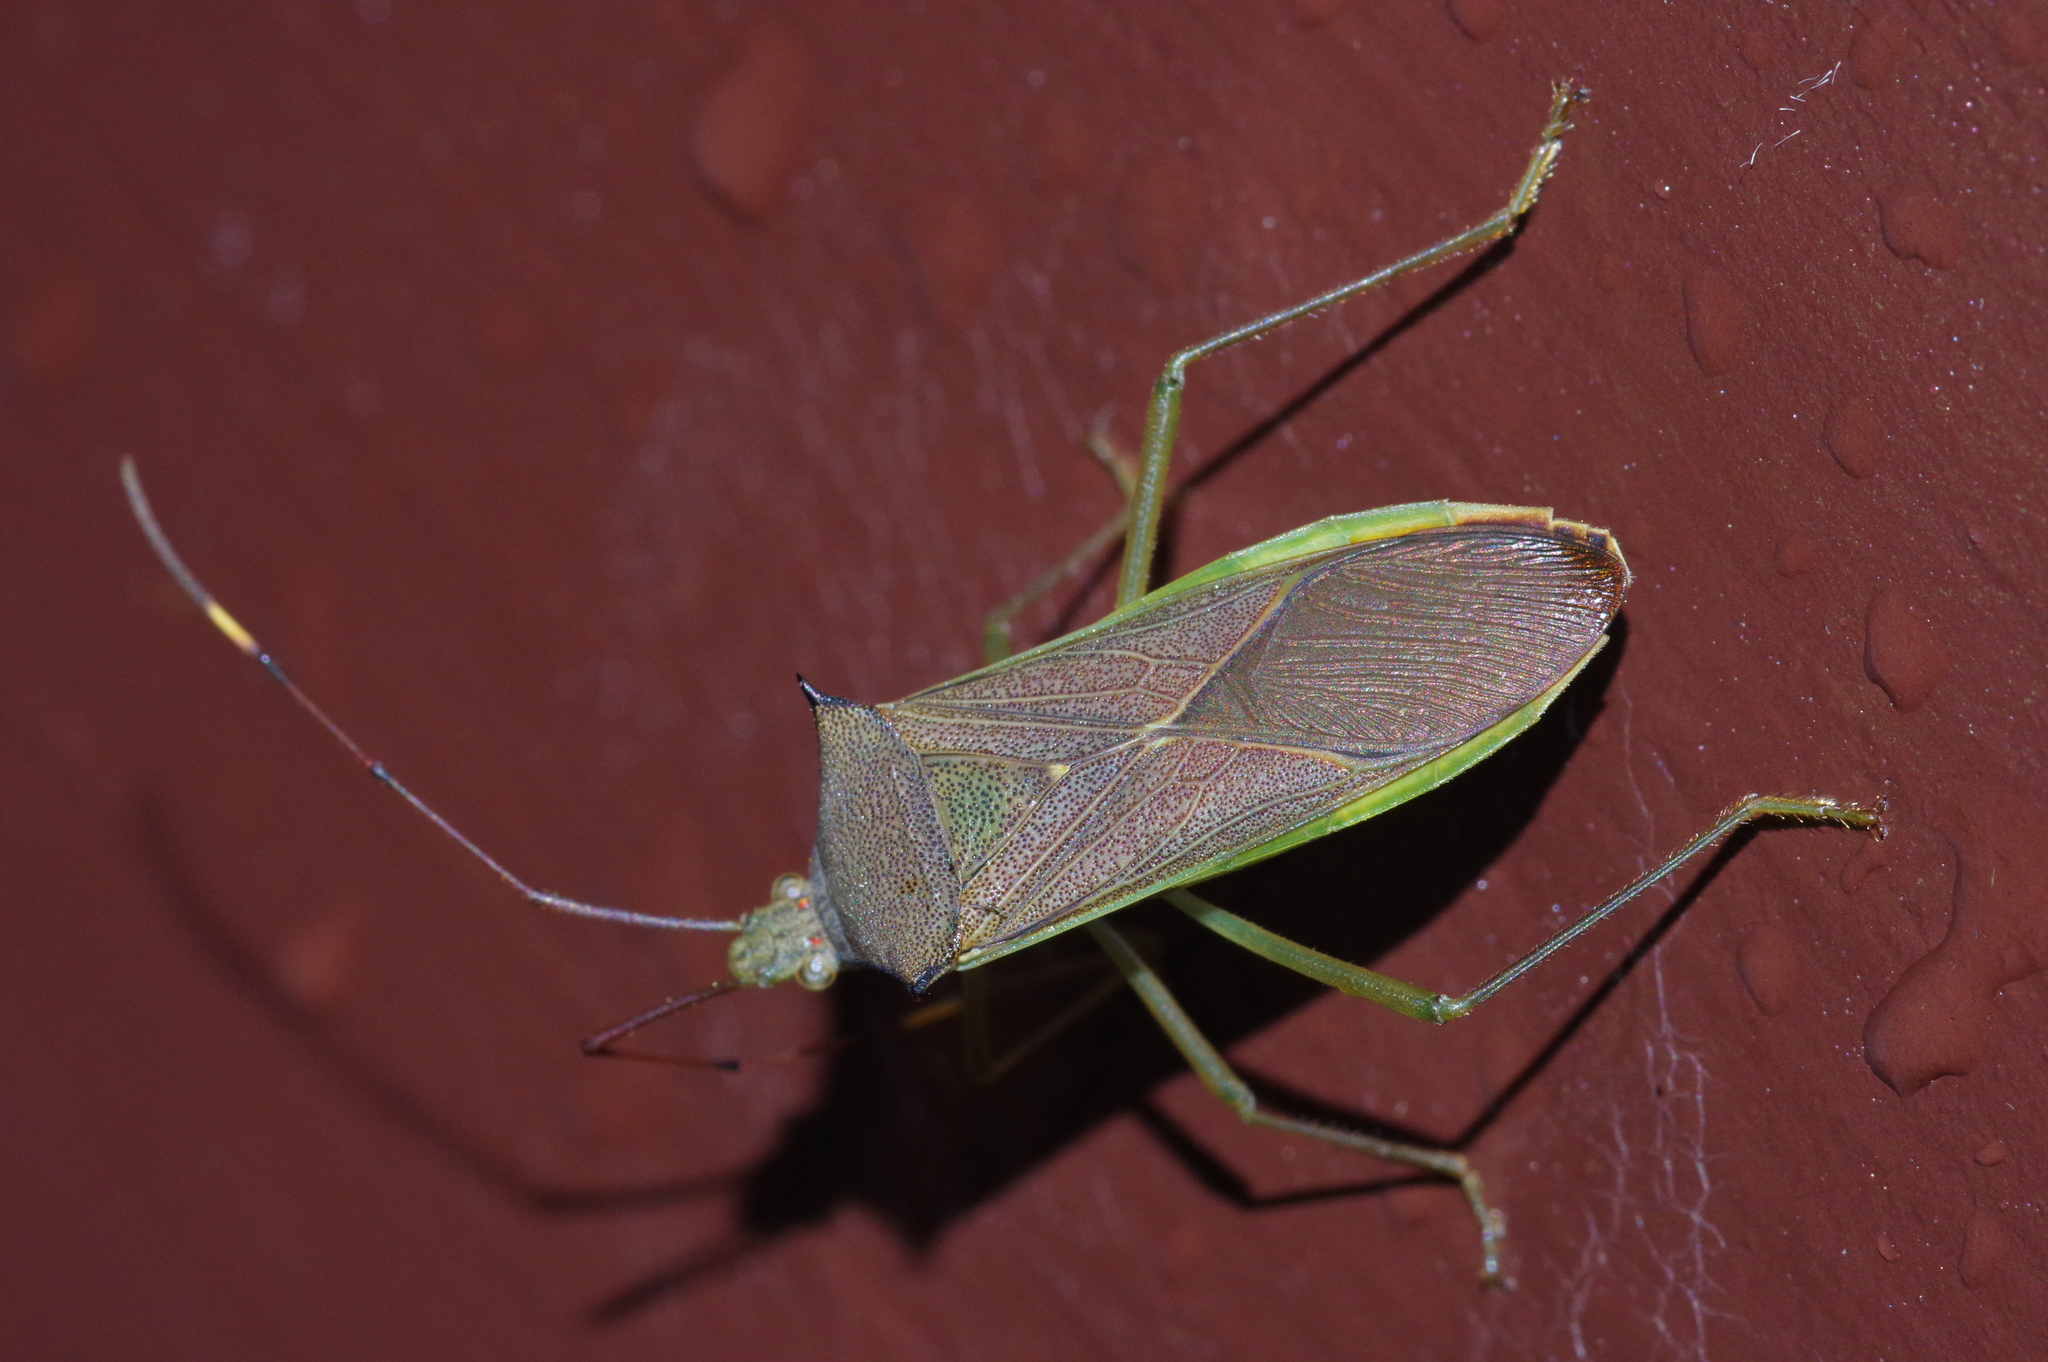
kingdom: Animalia
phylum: Arthropoda
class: Insecta
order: Hemiptera
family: Coreidae
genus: Paradasynus
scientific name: Paradasynus spinosus
